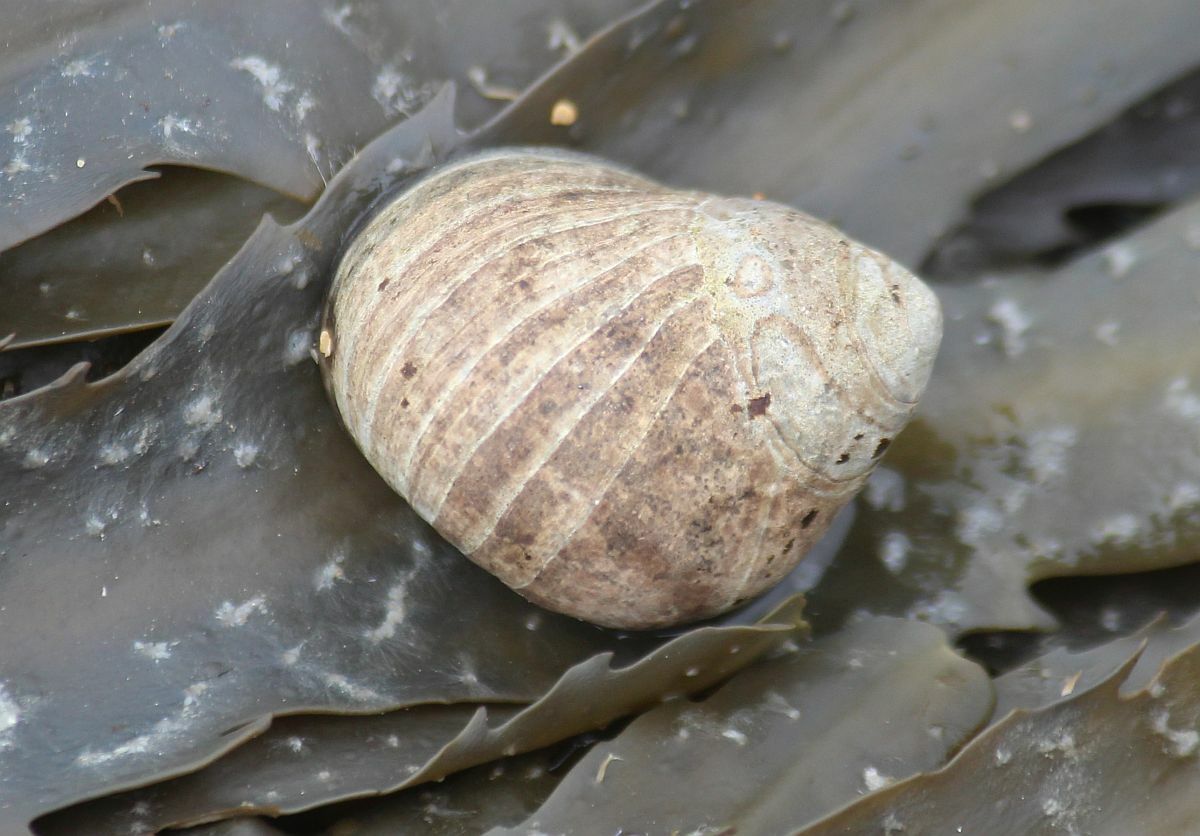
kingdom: Animalia
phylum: Mollusca
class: Gastropoda
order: Littorinimorpha
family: Littorinidae
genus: Littorina
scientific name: Littorina littorea
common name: Common periwinkle
